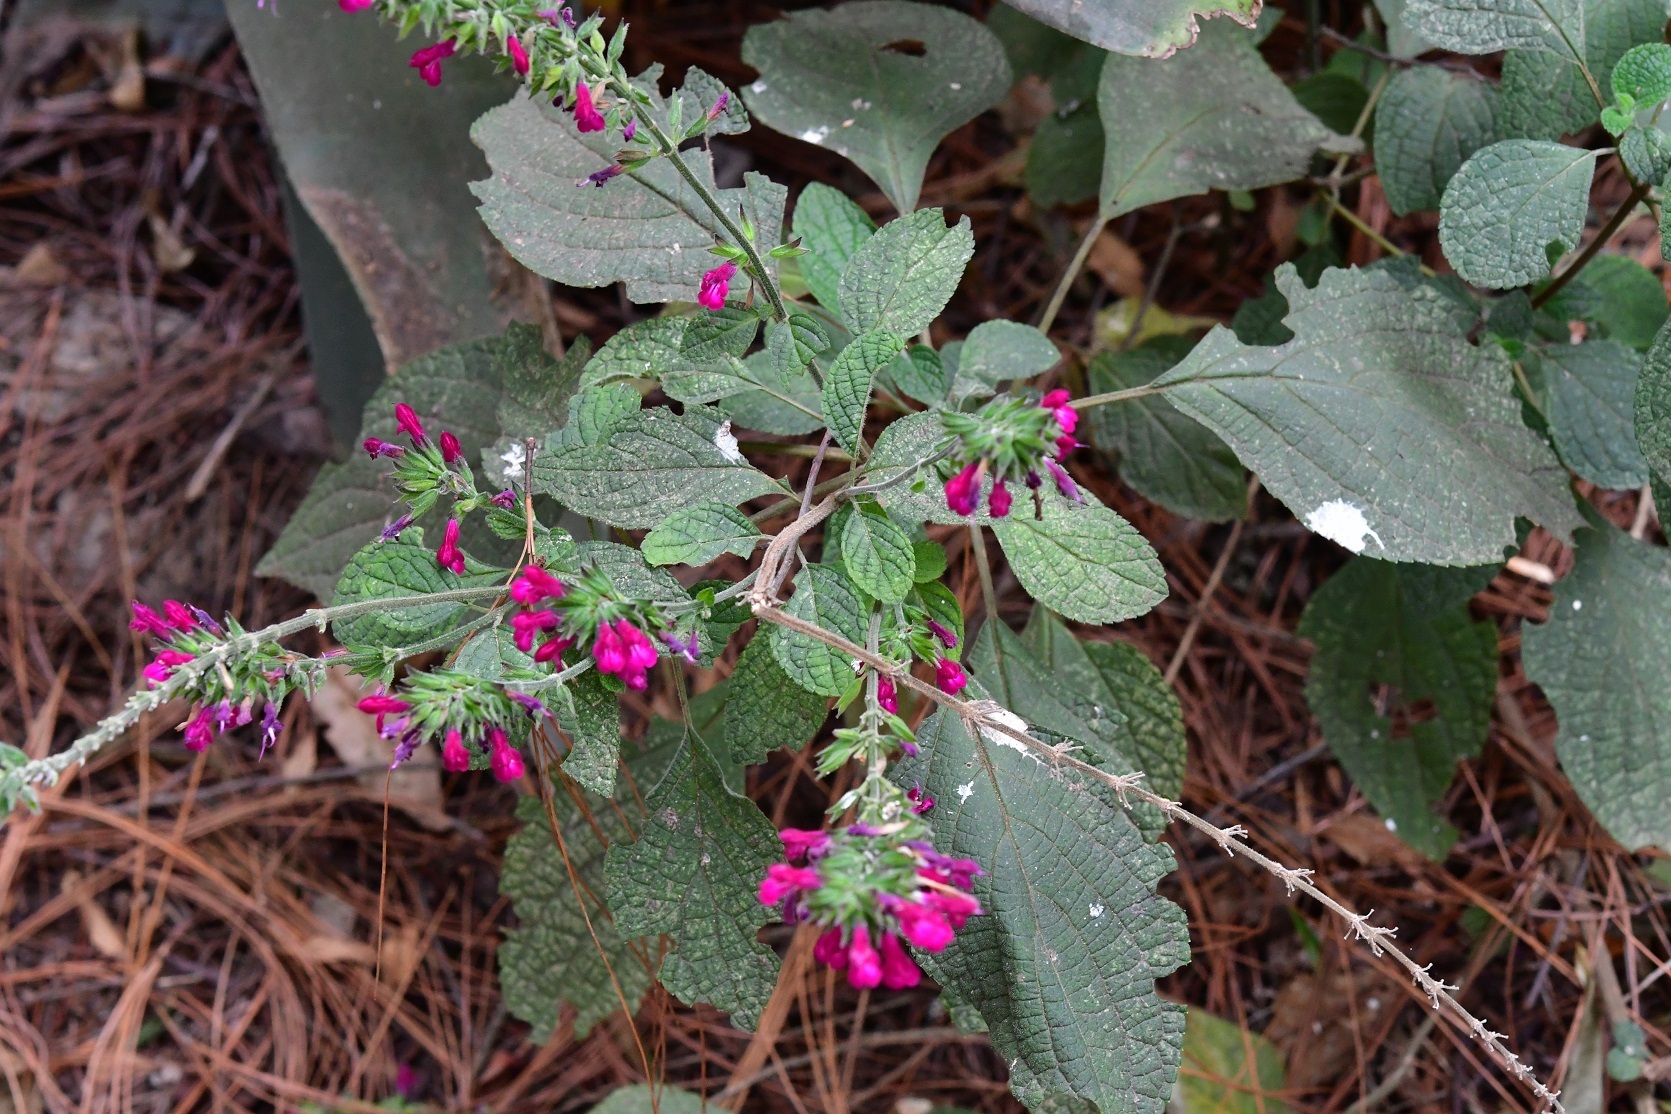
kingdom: Plantae
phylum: Tracheophyta
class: Magnoliopsida
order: Lamiales
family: Lamiaceae
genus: Salvia
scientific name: Salvia chiapensis
